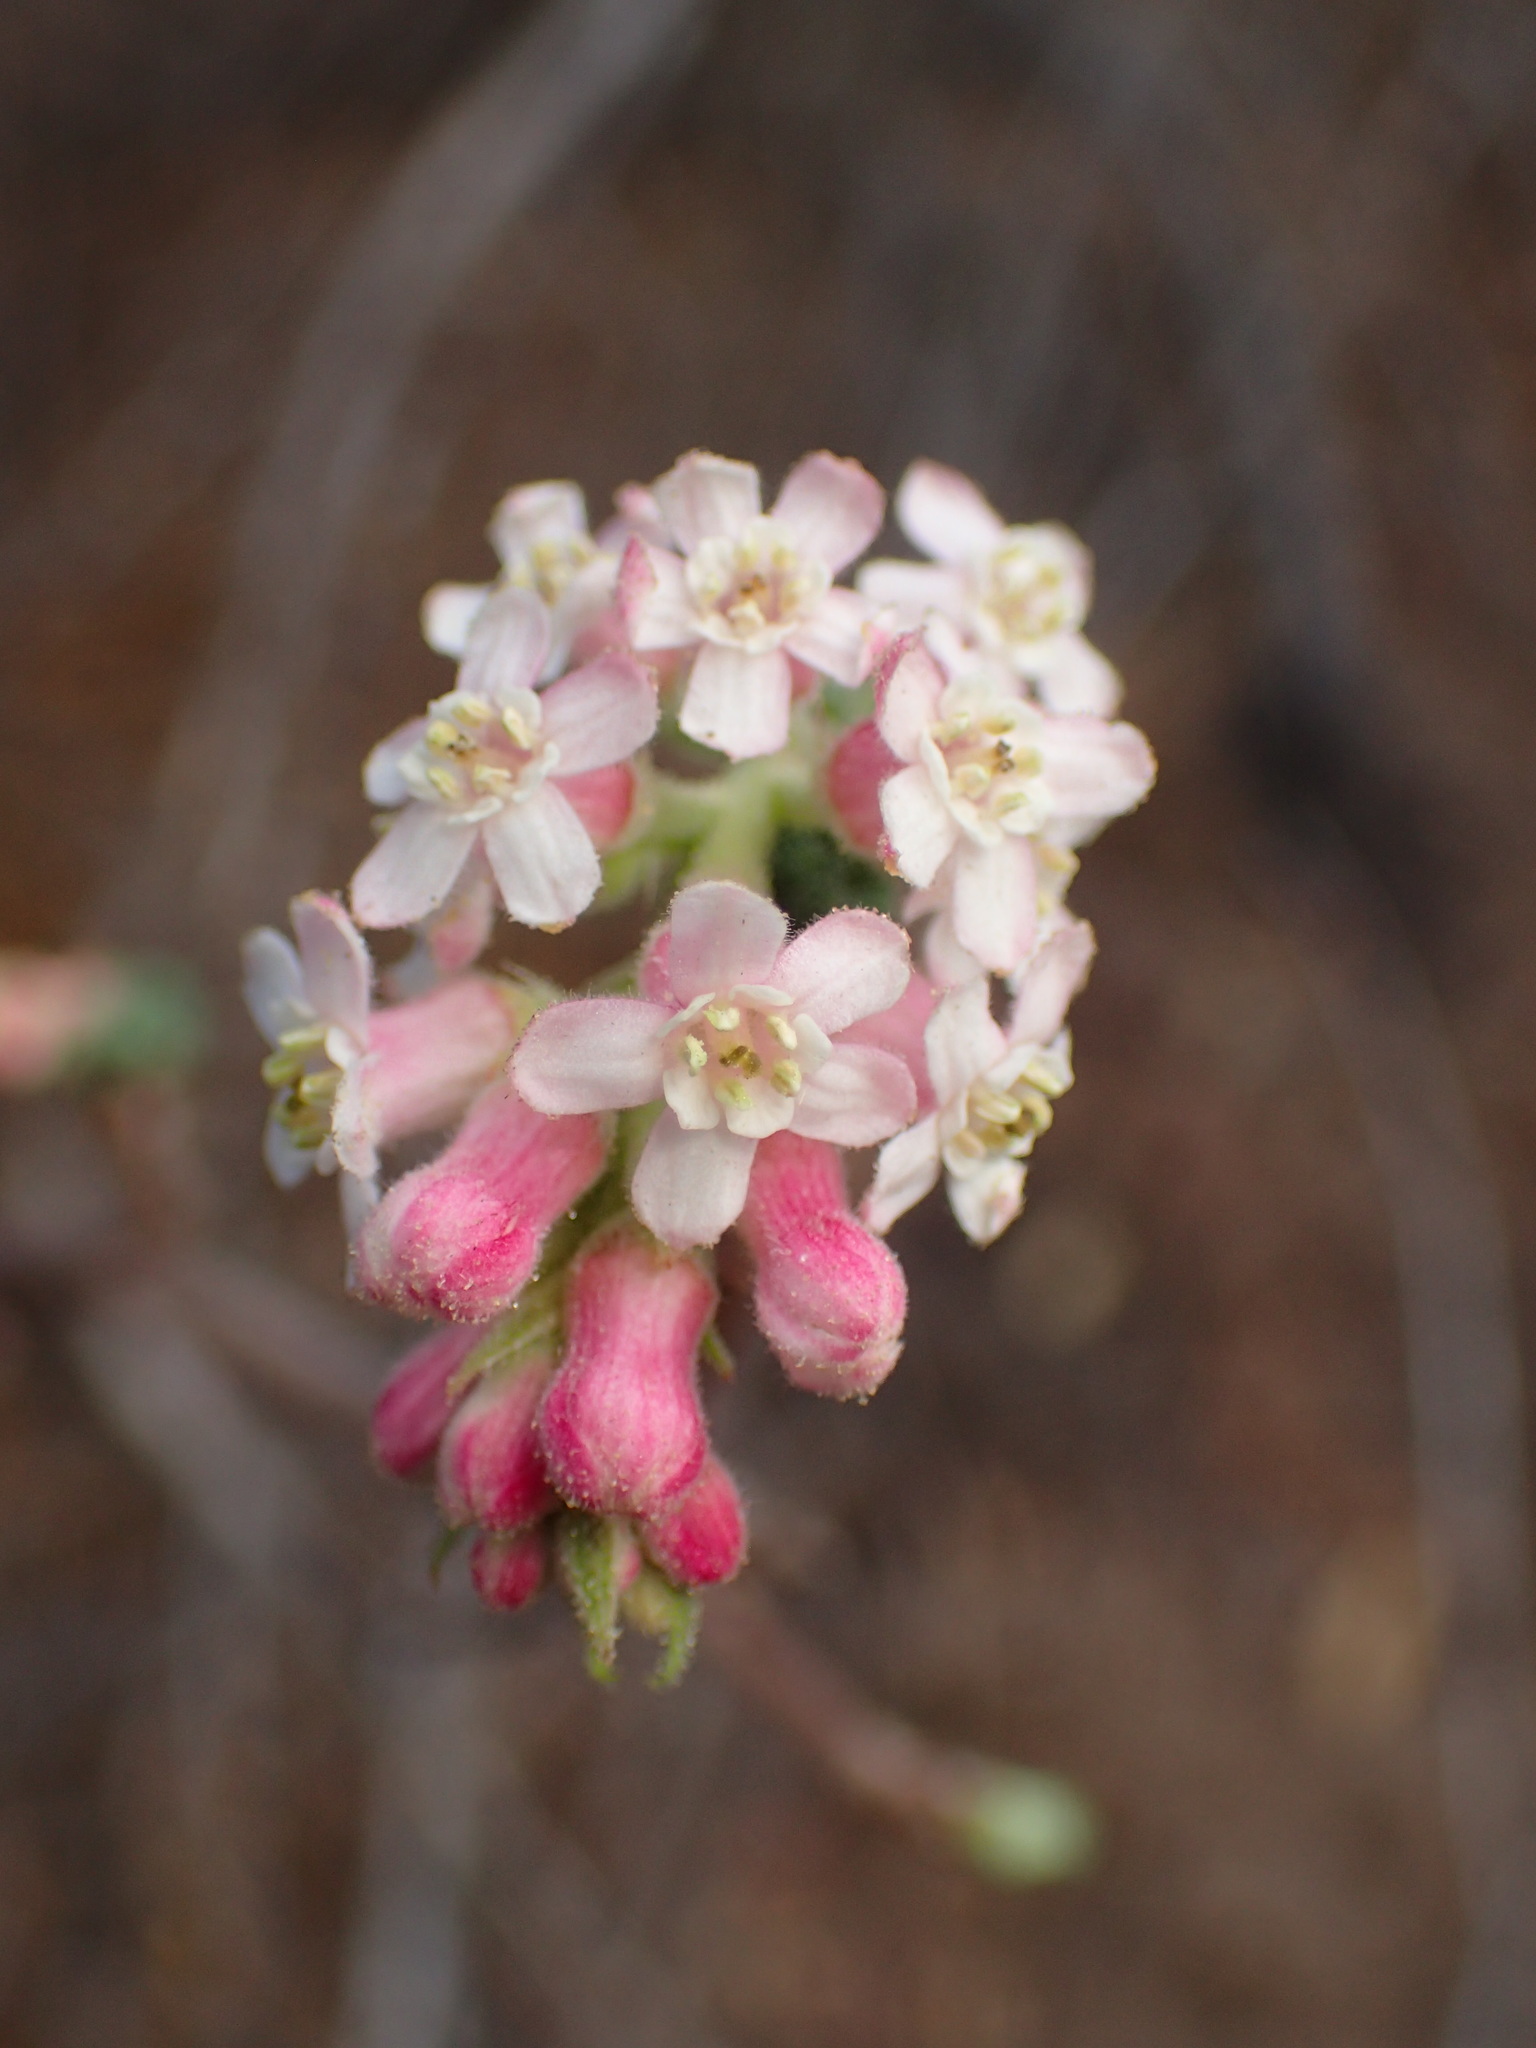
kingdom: Plantae
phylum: Tracheophyta
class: Magnoliopsida
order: Saxifragales
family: Grossulariaceae
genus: Ribes
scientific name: Ribes malvaceum
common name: Chaparral currant
